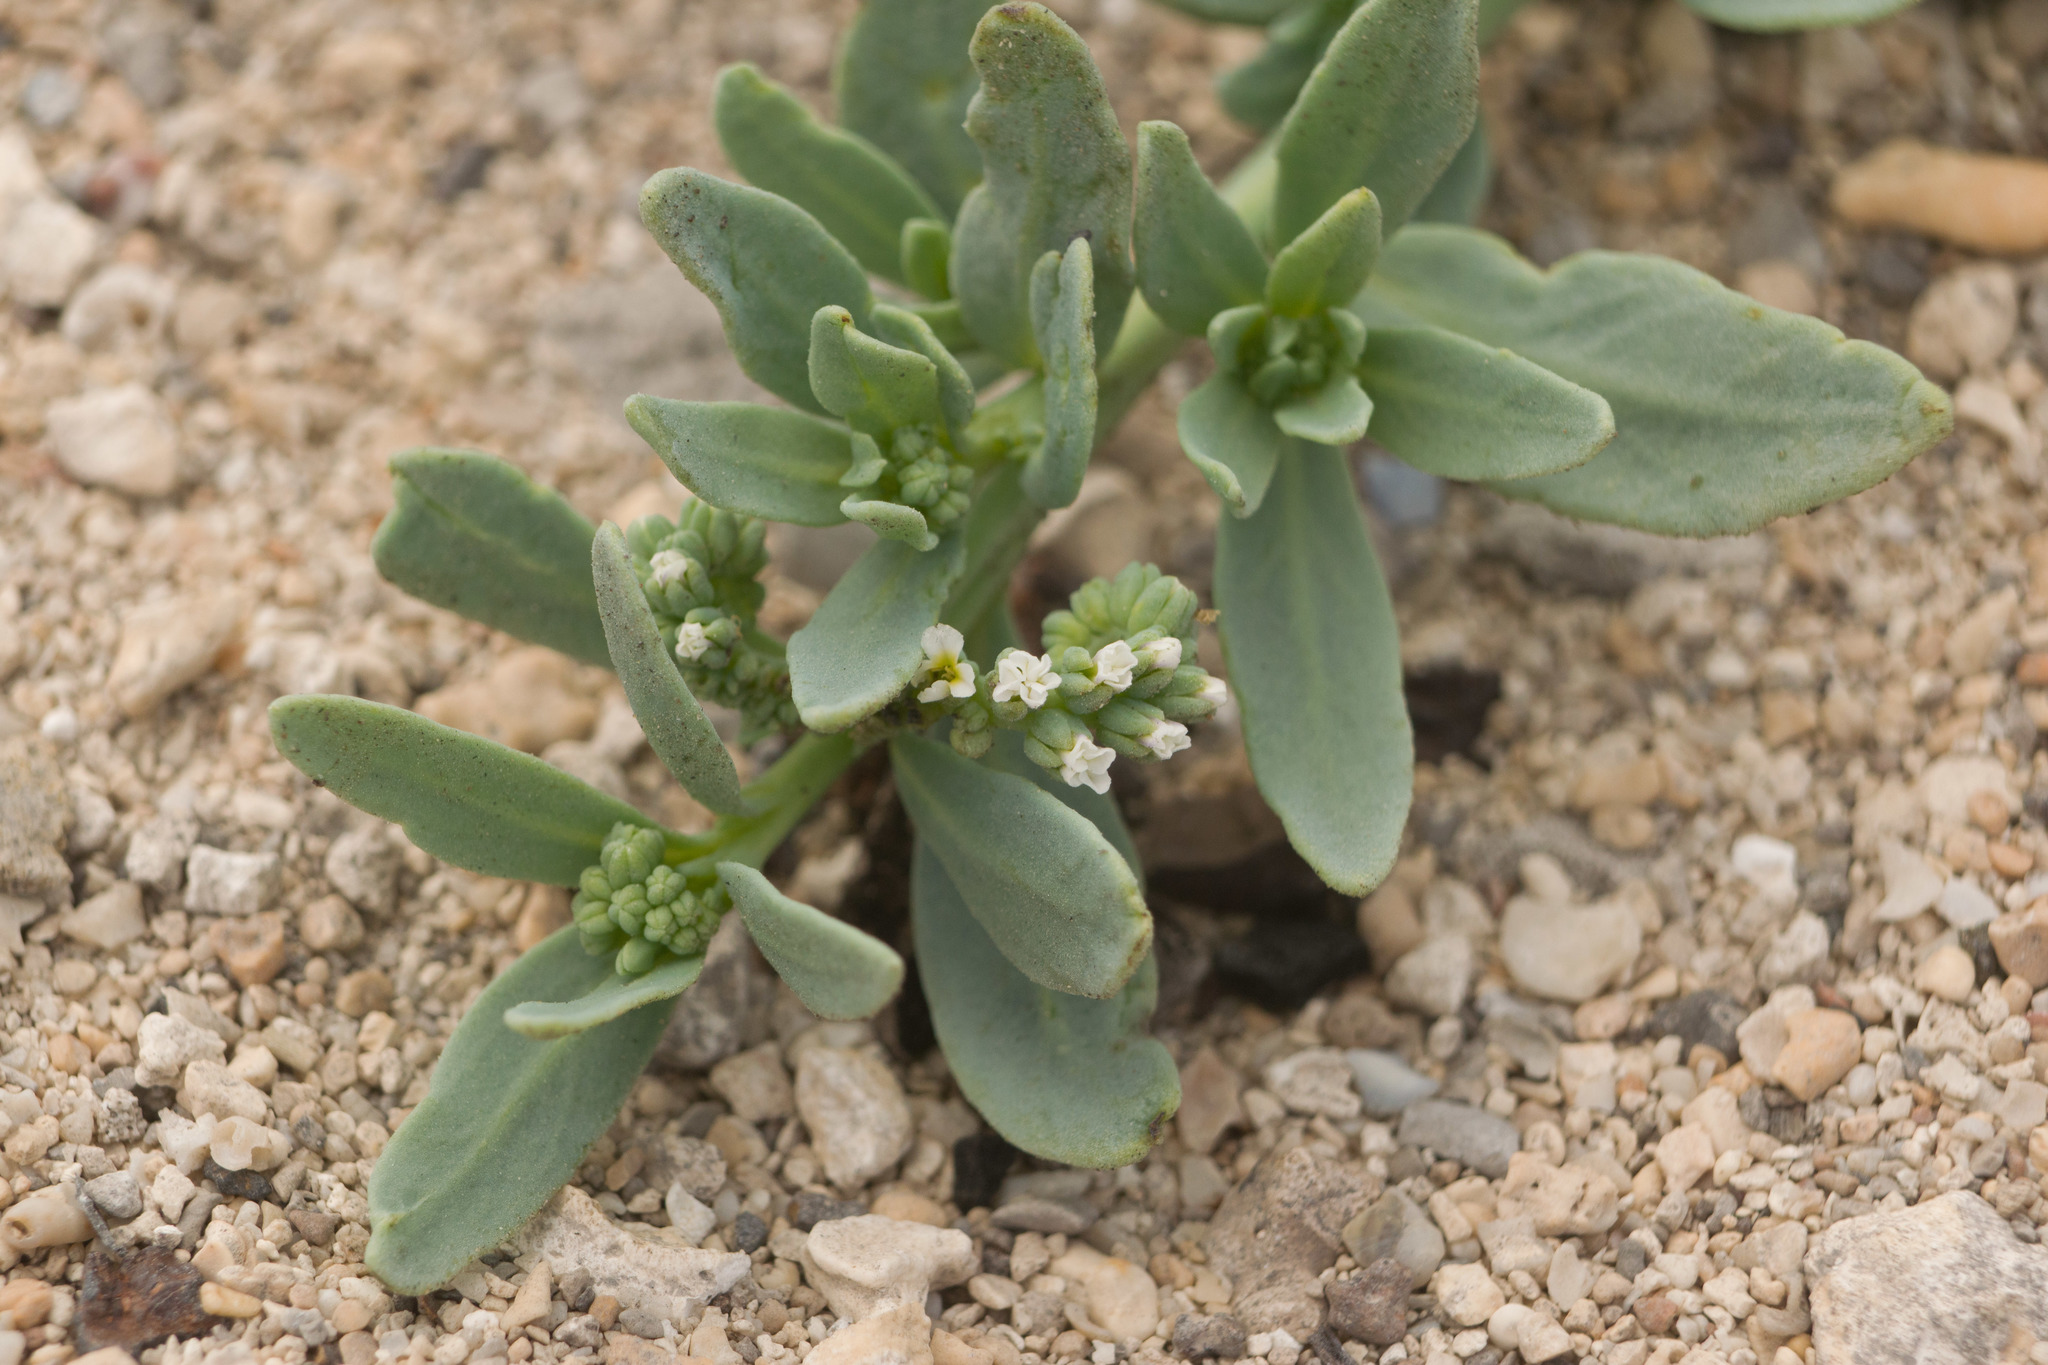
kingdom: Plantae
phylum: Tracheophyta
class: Magnoliopsida
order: Boraginales
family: Heliotropiaceae
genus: Heliotropium
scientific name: Heliotropium curassavicum
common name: Seaside heliotrope
